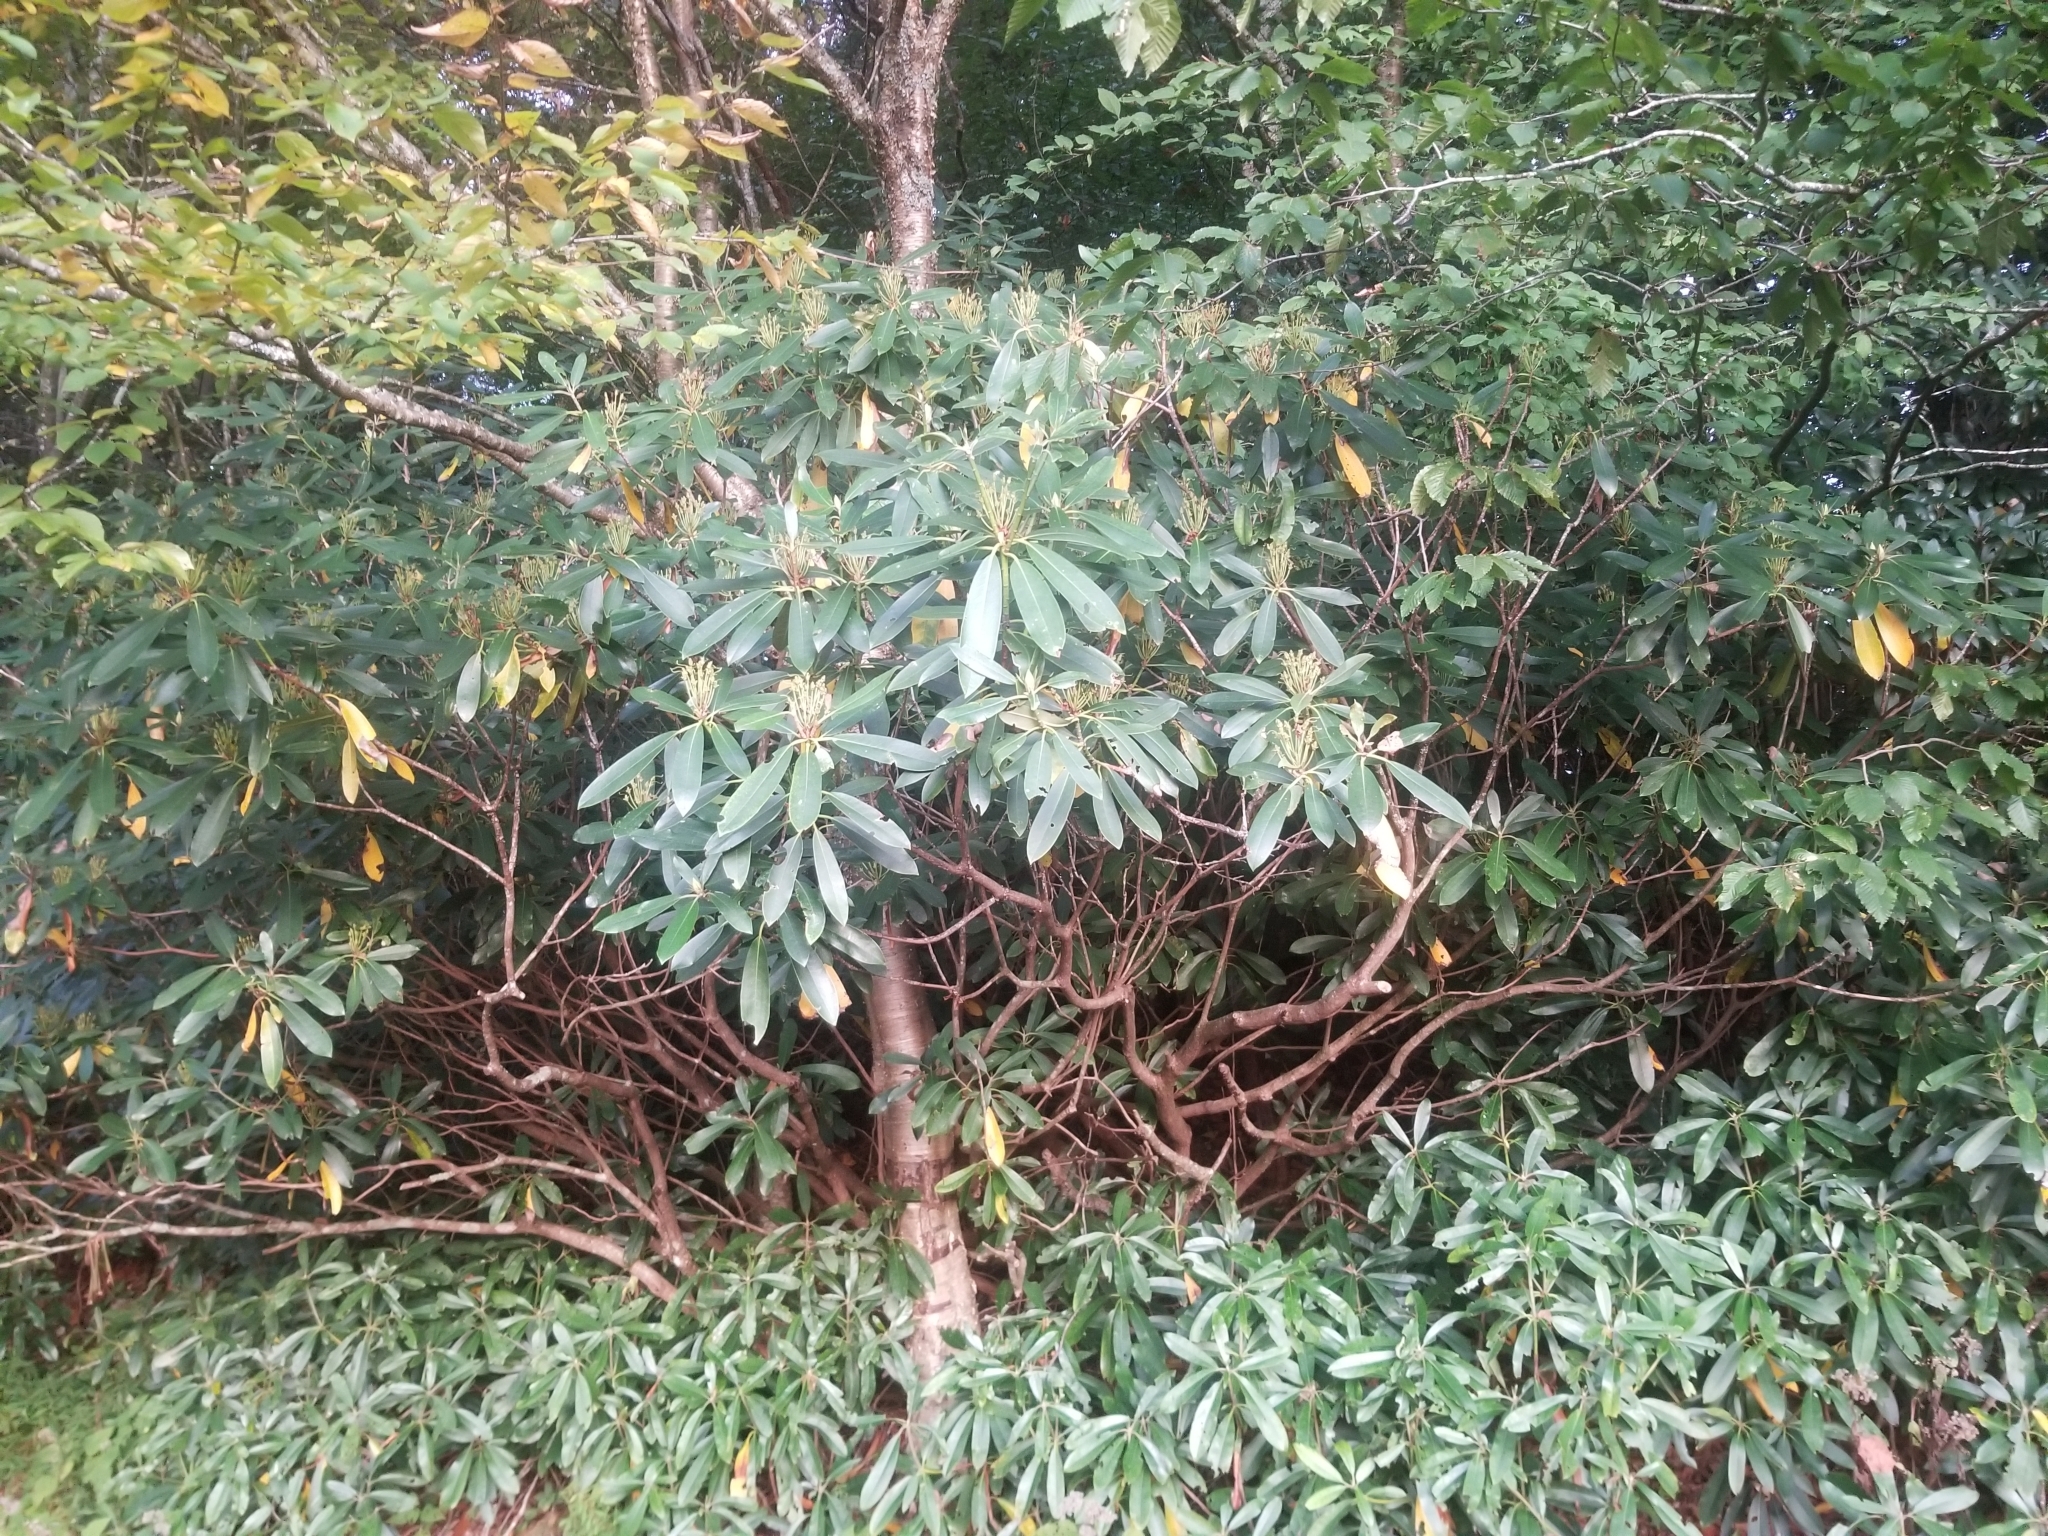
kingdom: Plantae
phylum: Tracheophyta
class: Magnoliopsida
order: Ericales
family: Ericaceae
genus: Rhododendron
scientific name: Rhododendron maximum
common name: Great rhododendron
